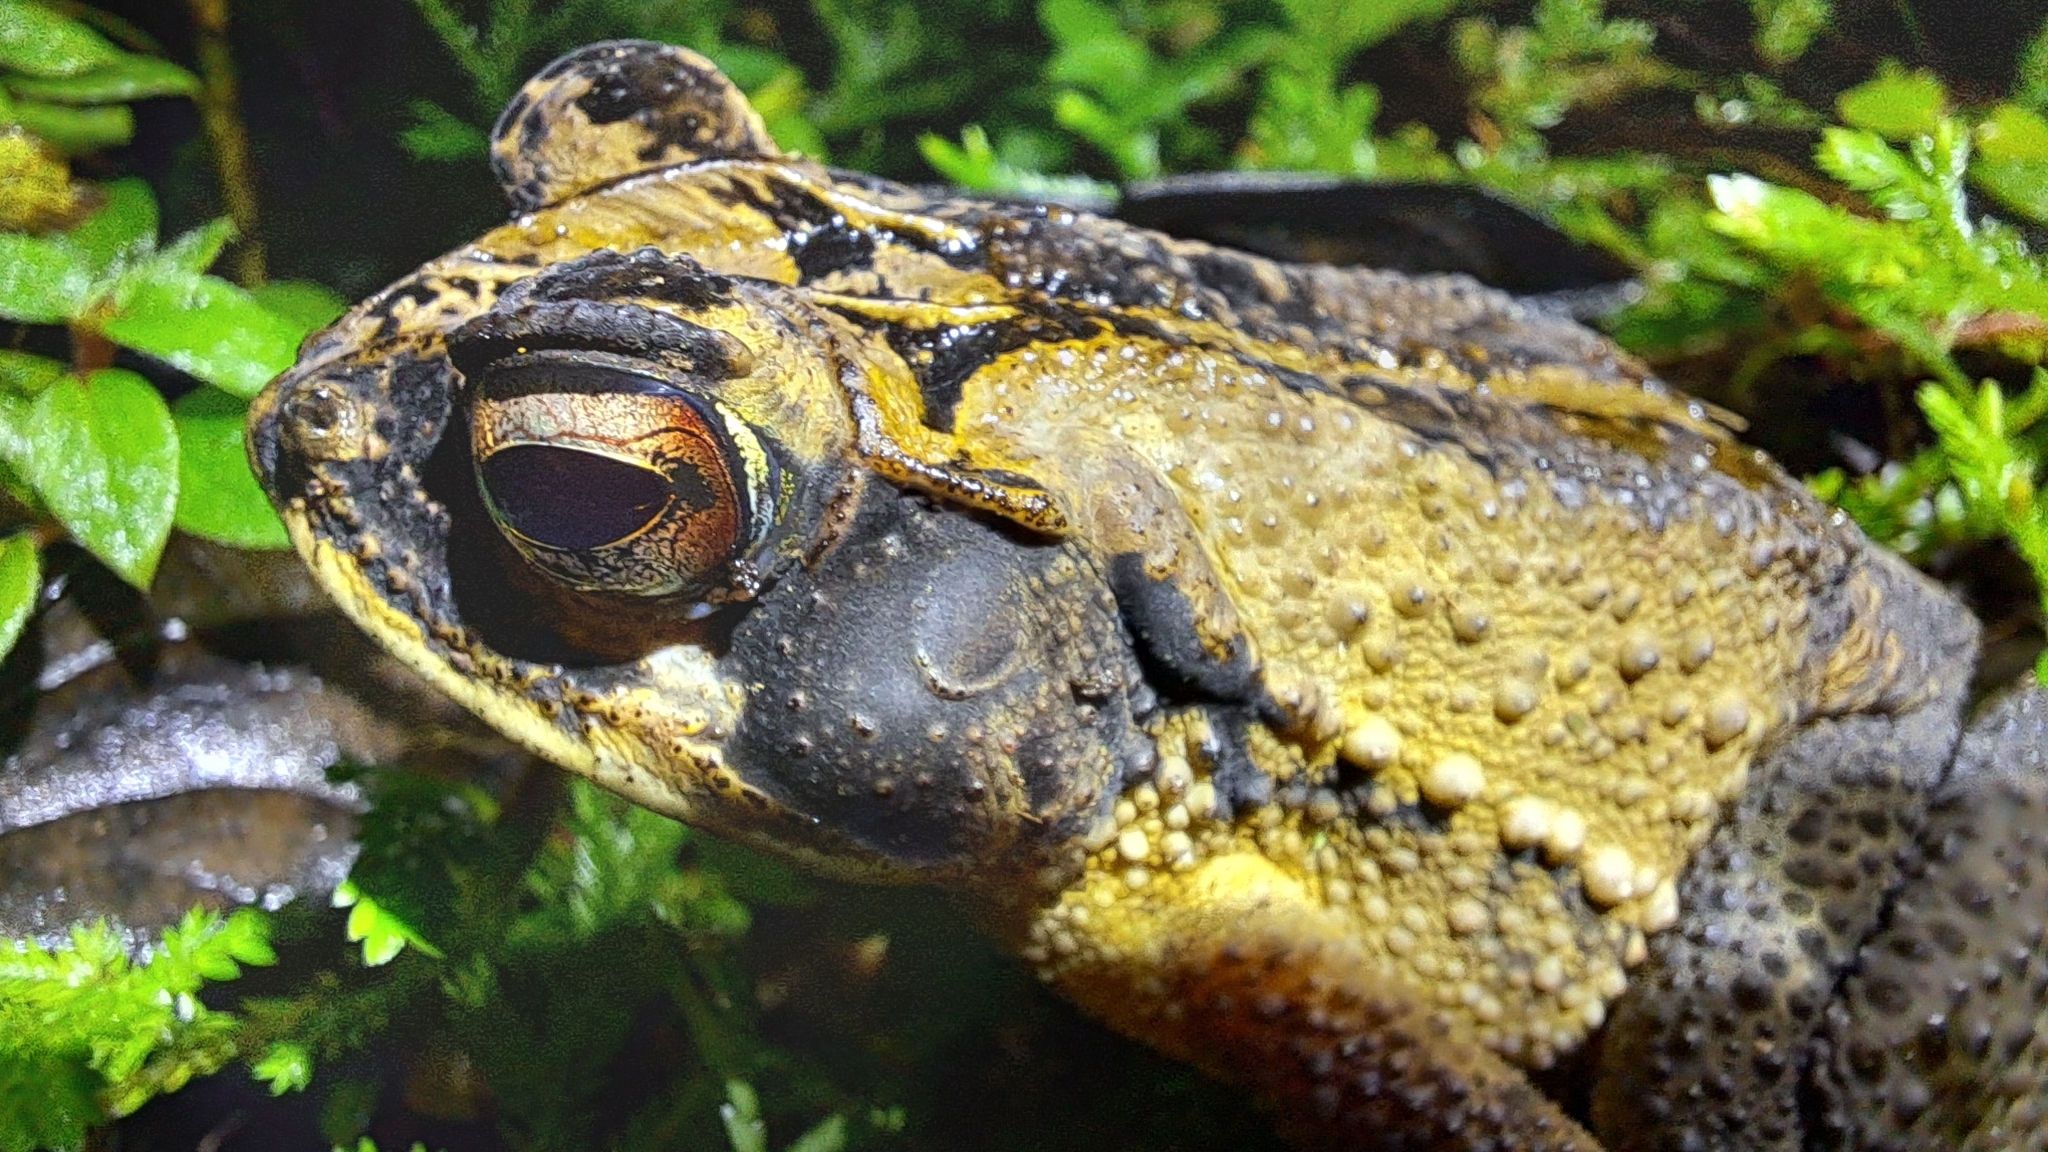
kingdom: Animalia
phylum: Chordata
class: Amphibia
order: Anura
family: Bufonidae
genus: Incilius
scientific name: Incilius melanochlorus
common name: Dark green toad
